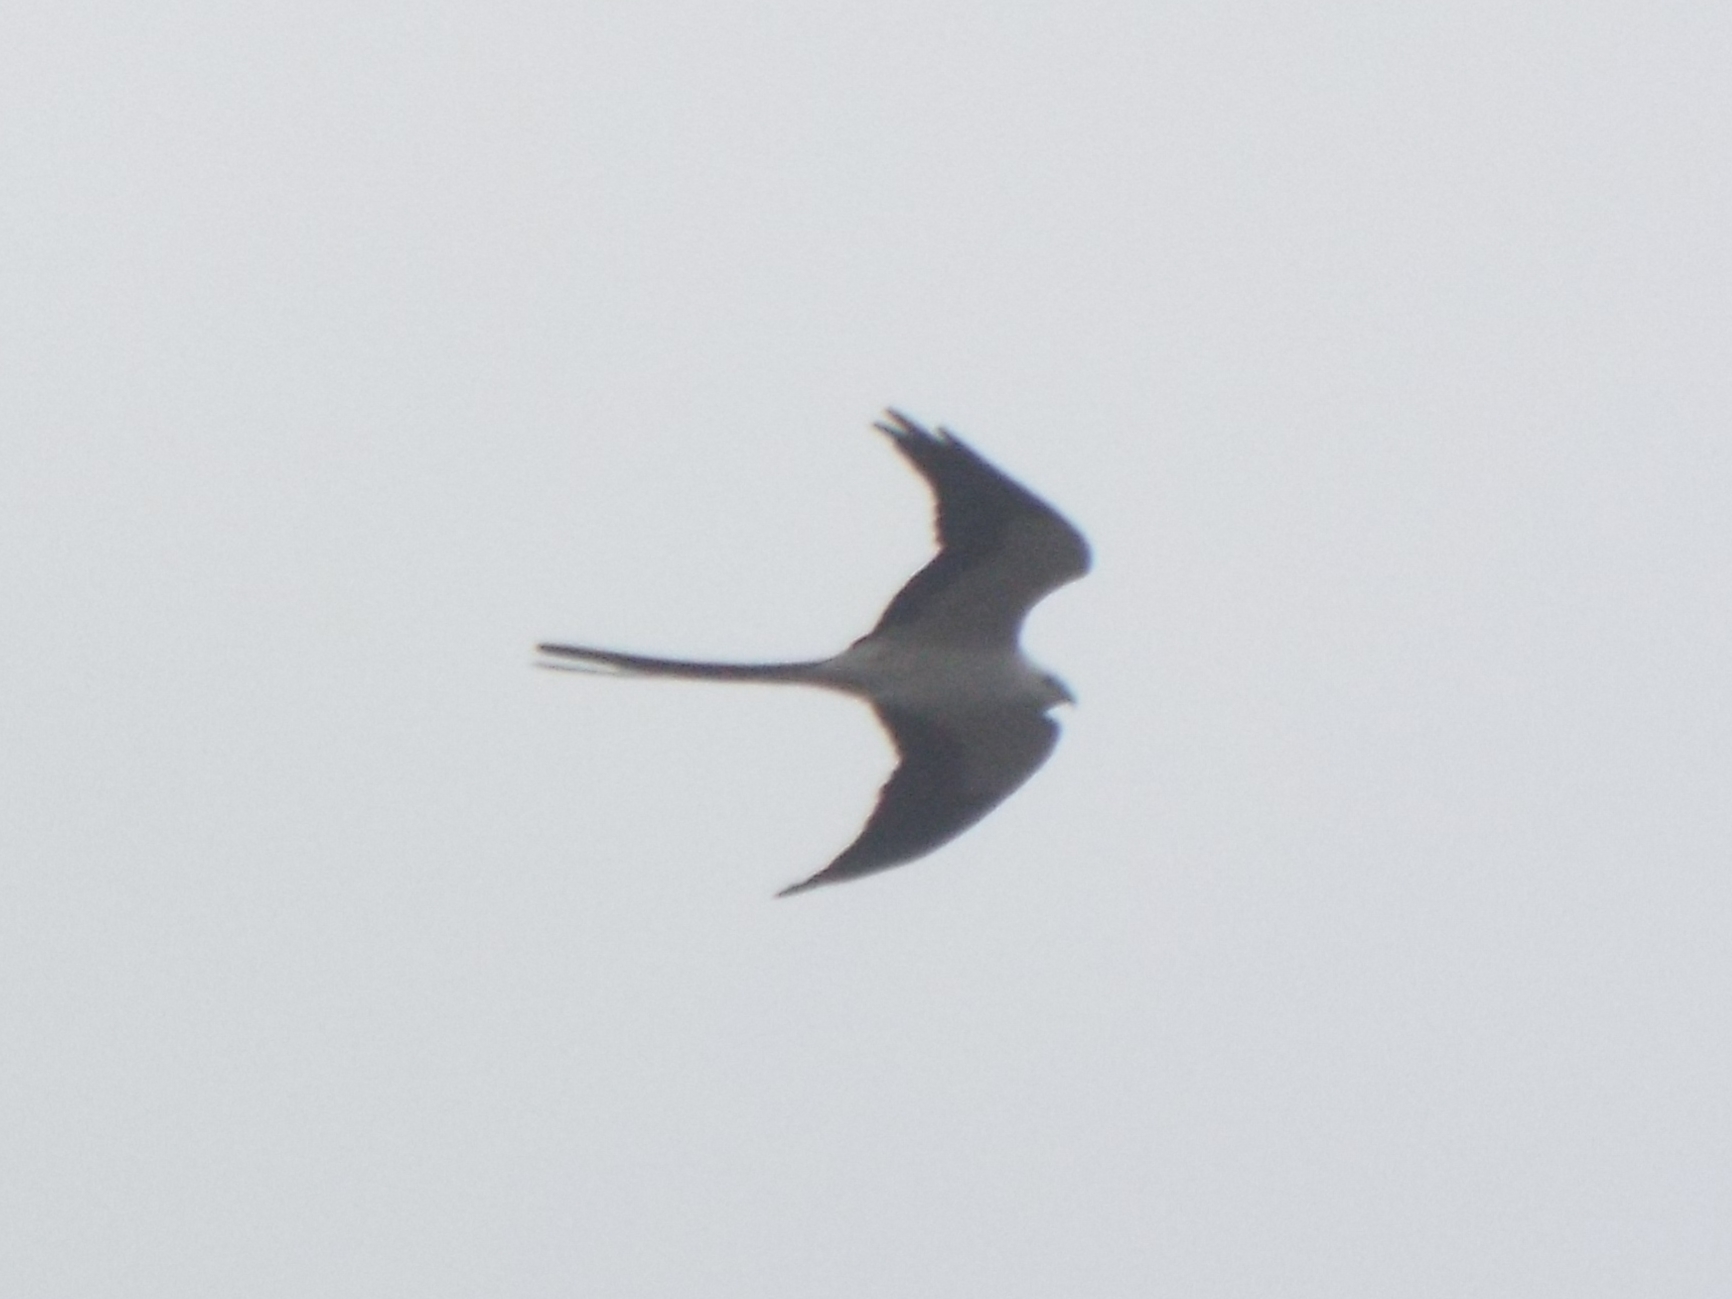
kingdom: Animalia
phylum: Chordata
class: Aves
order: Accipitriformes
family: Accipitridae
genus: Elanoides
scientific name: Elanoides forficatus
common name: Swallow-tailed kite
